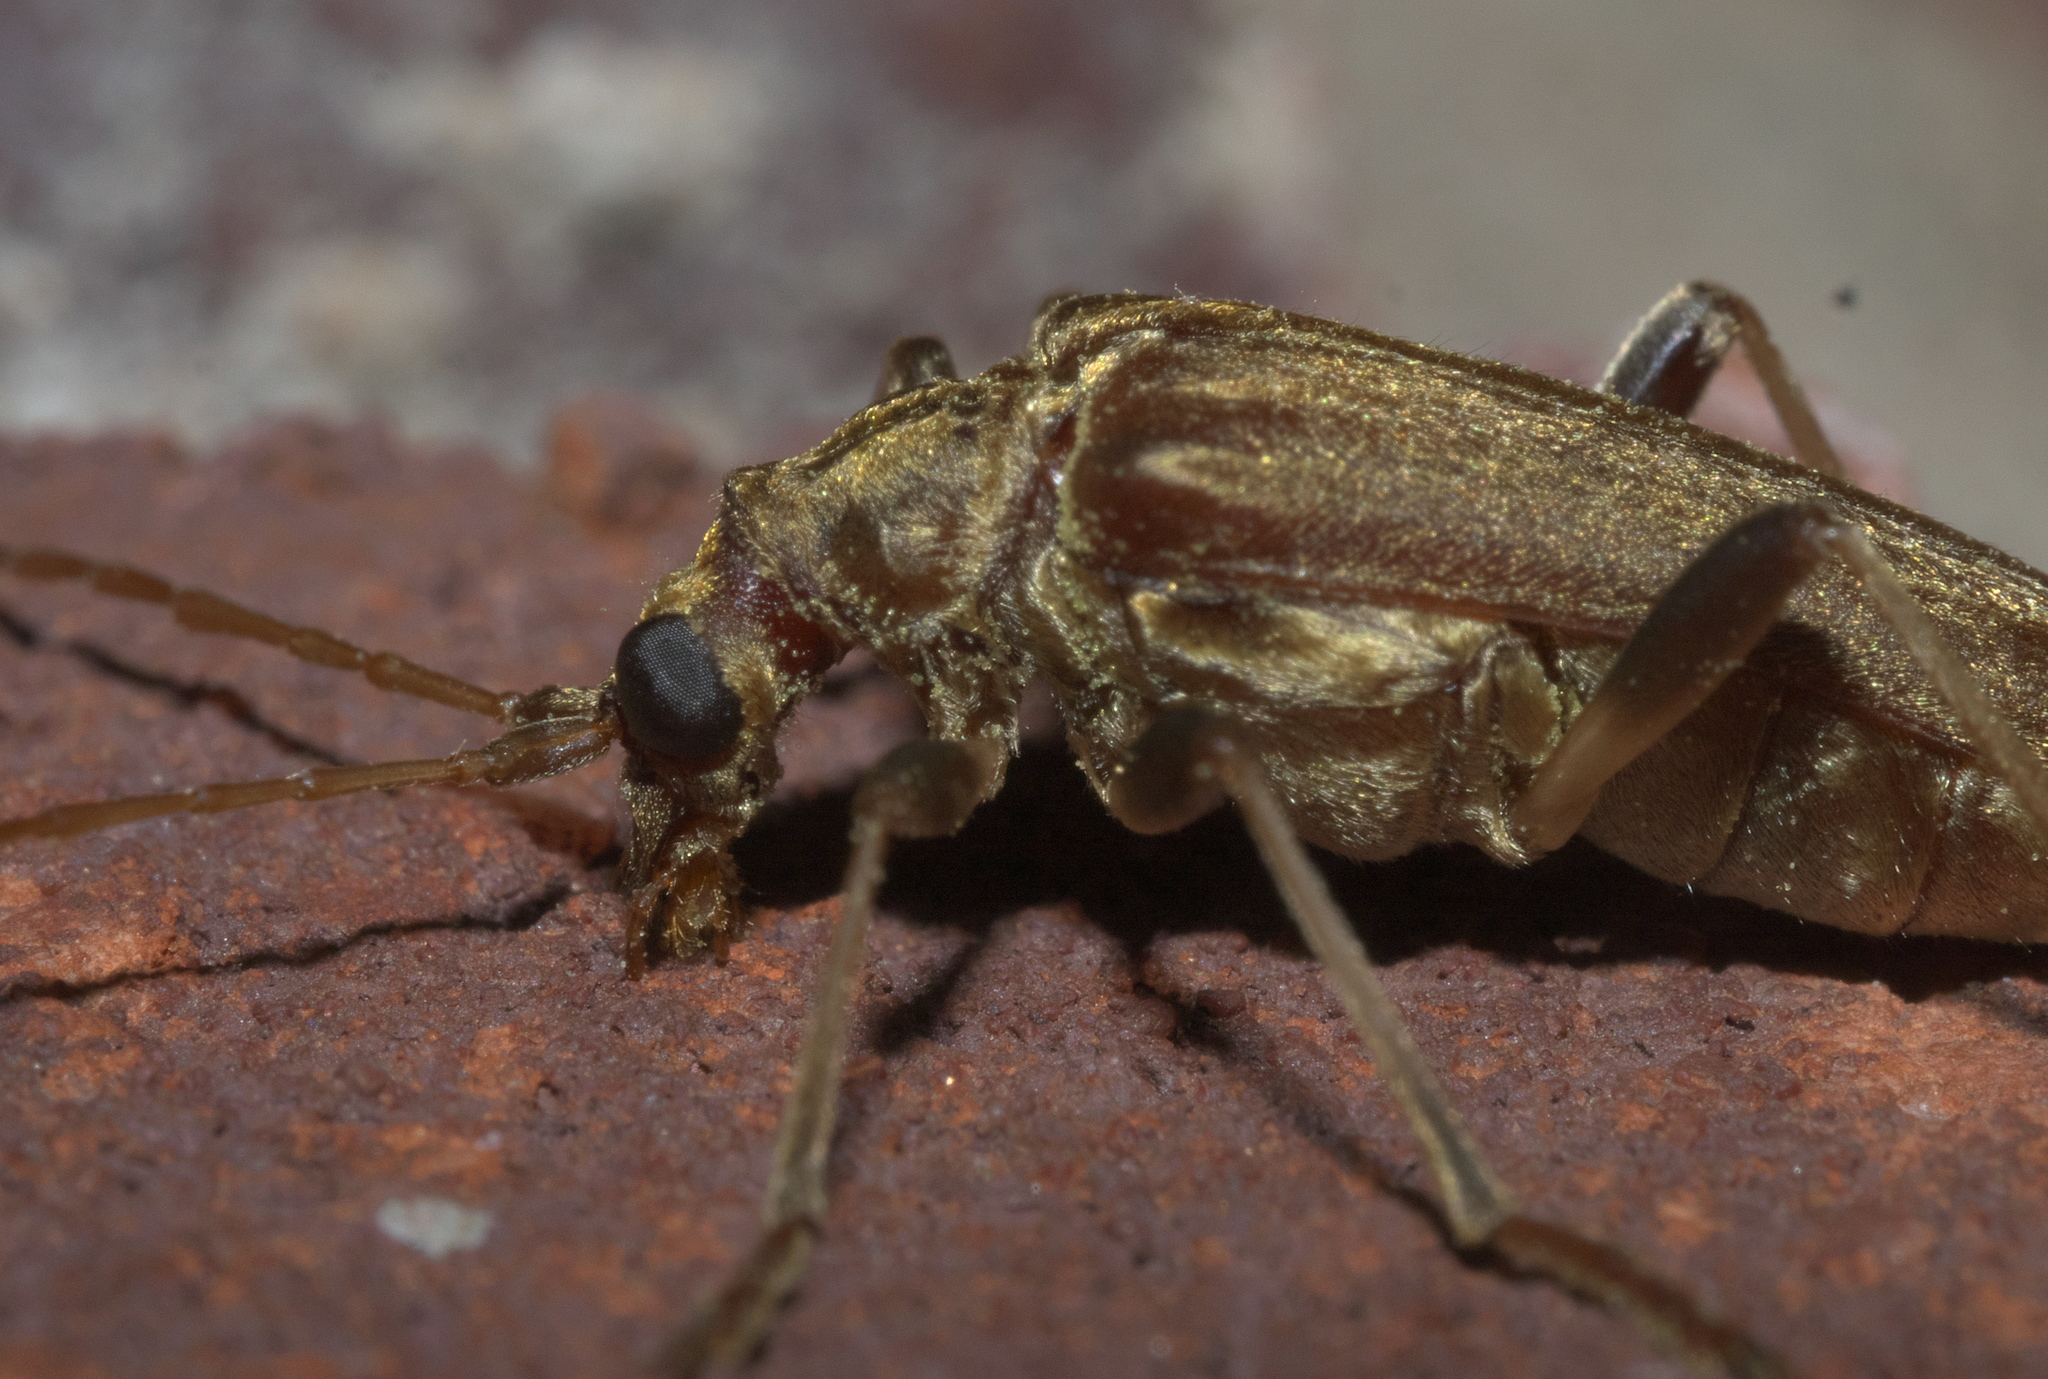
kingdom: Animalia
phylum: Arthropoda
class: Insecta
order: Coleoptera
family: Cerambycidae
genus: Stenocorus
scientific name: Stenocorus cinnamopterus
